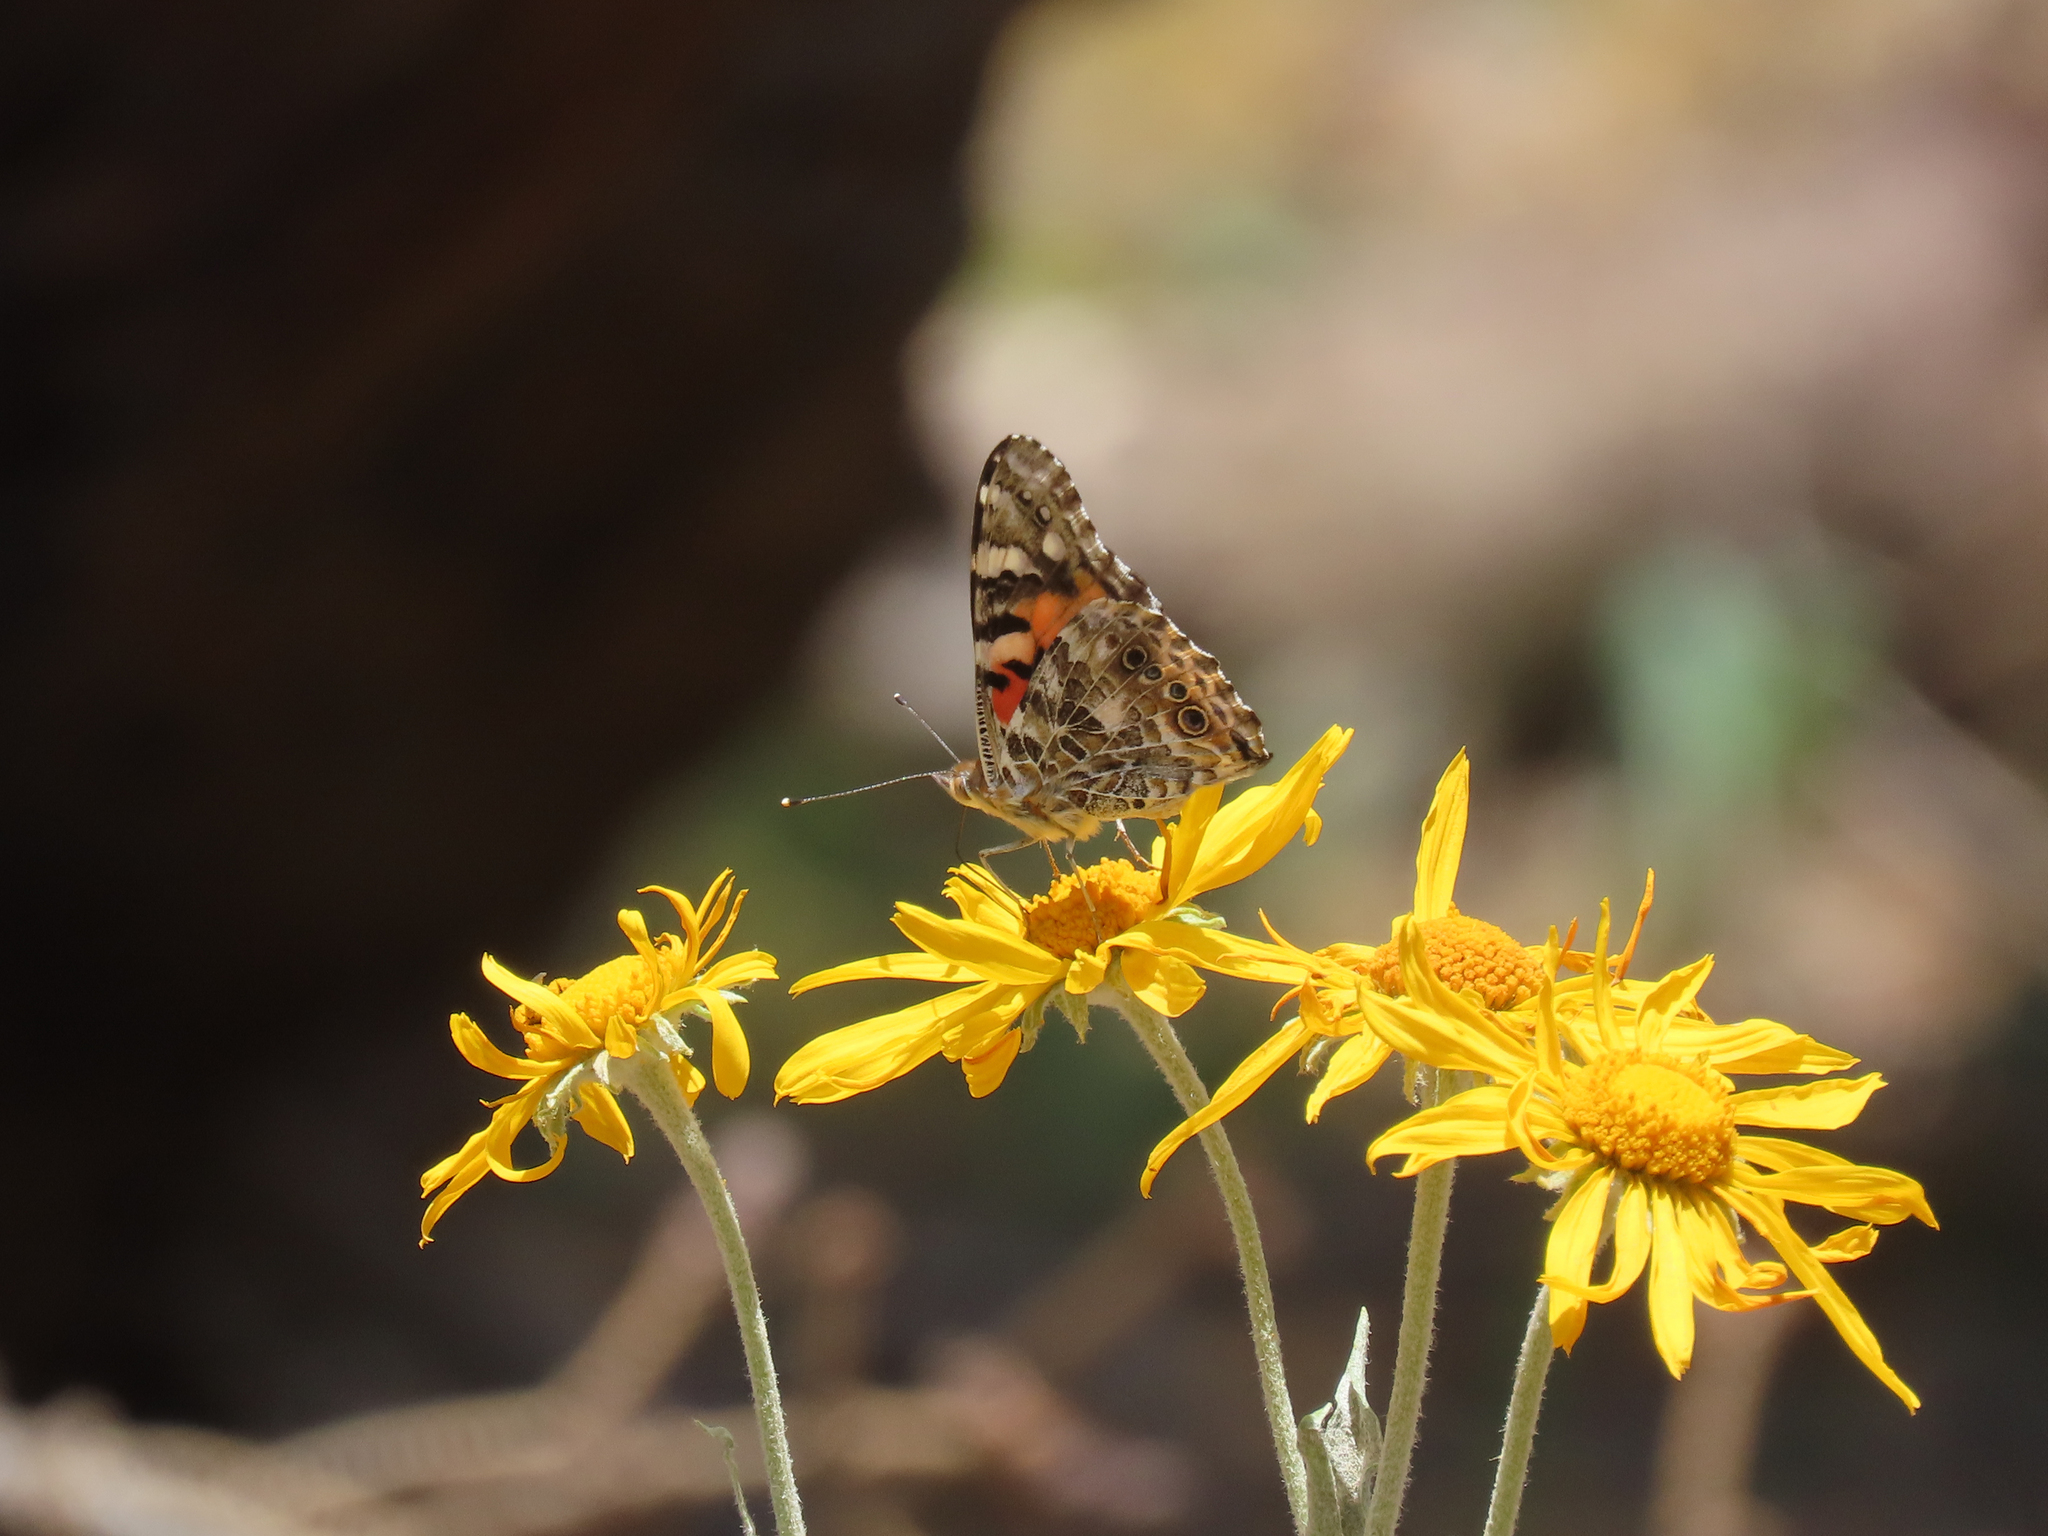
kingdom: Animalia
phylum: Arthropoda
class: Insecta
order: Lepidoptera
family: Nymphalidae
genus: Vanessa
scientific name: Vanessa cardui
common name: Painted lady
